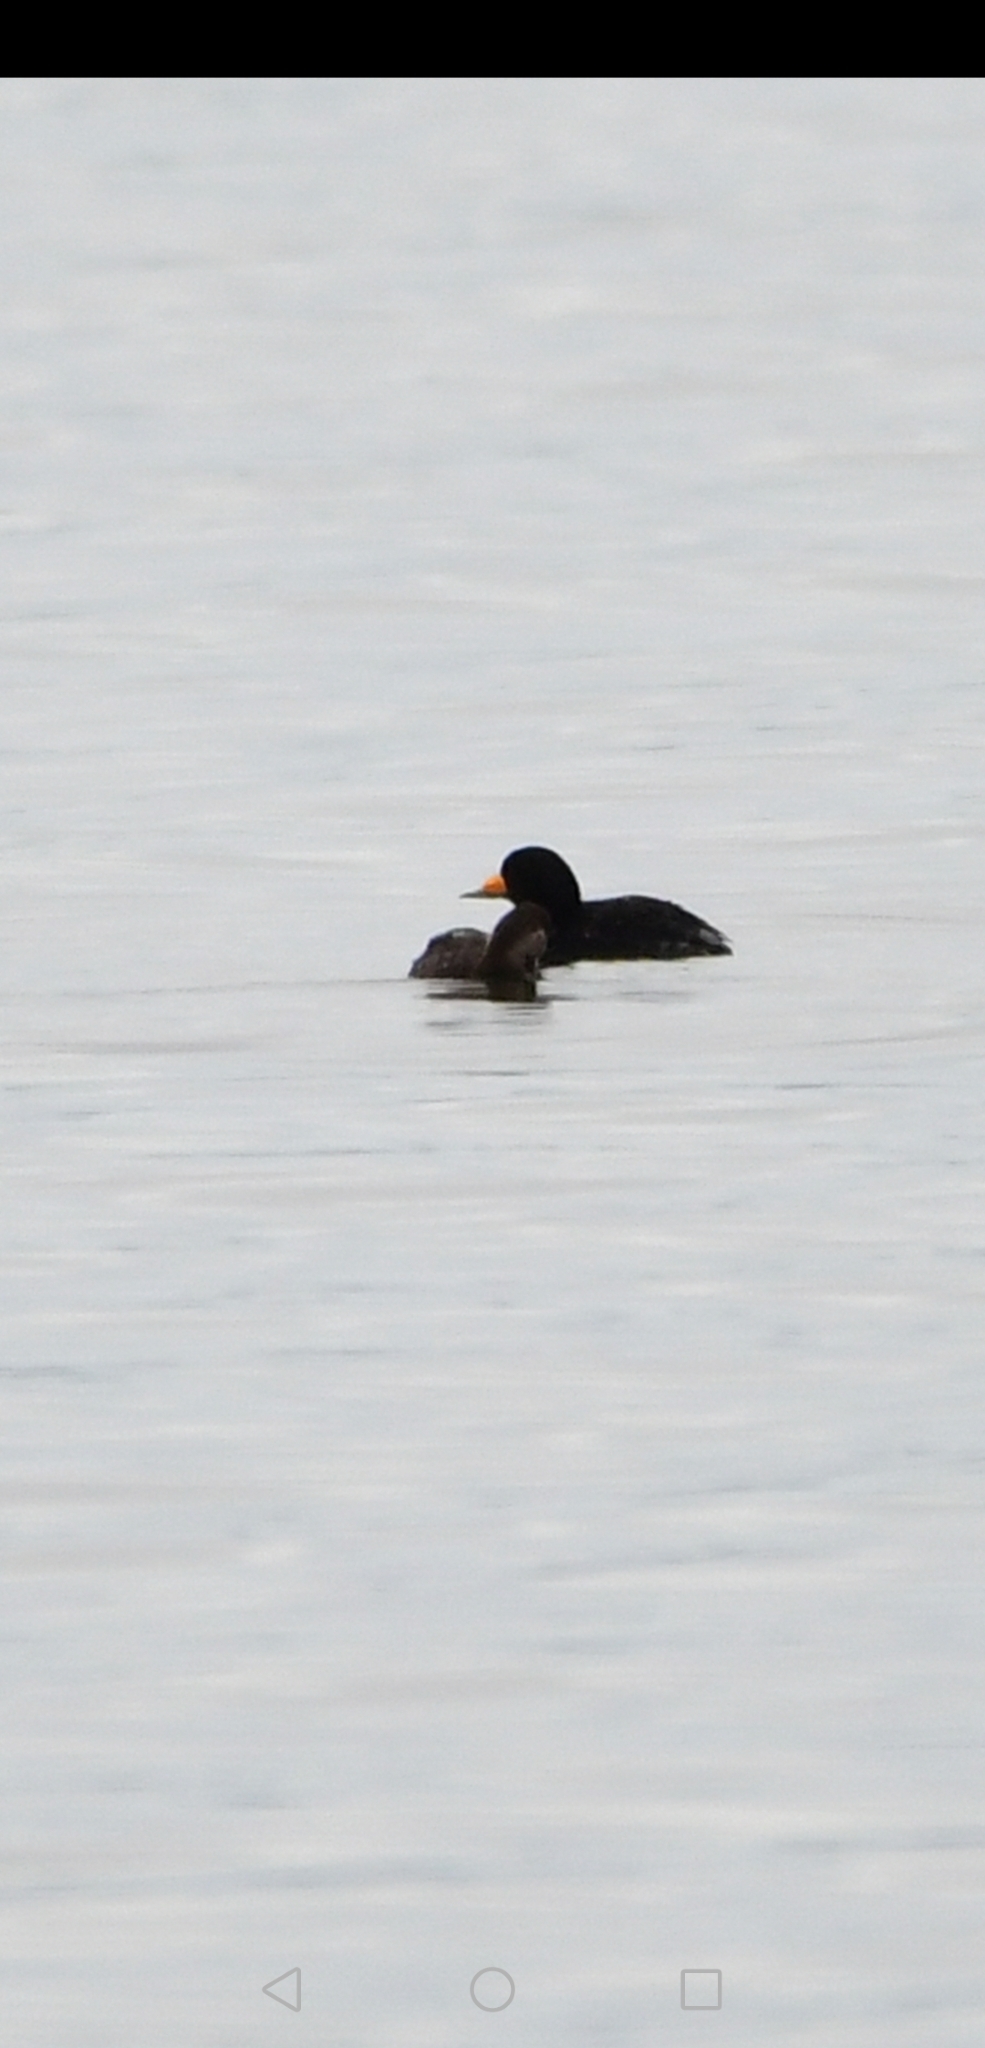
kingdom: Animalia
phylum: Chordata
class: Aves
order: Anseriformes
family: Anatidae
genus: Melanitta
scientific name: Melanitta americana
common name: Black scoter
